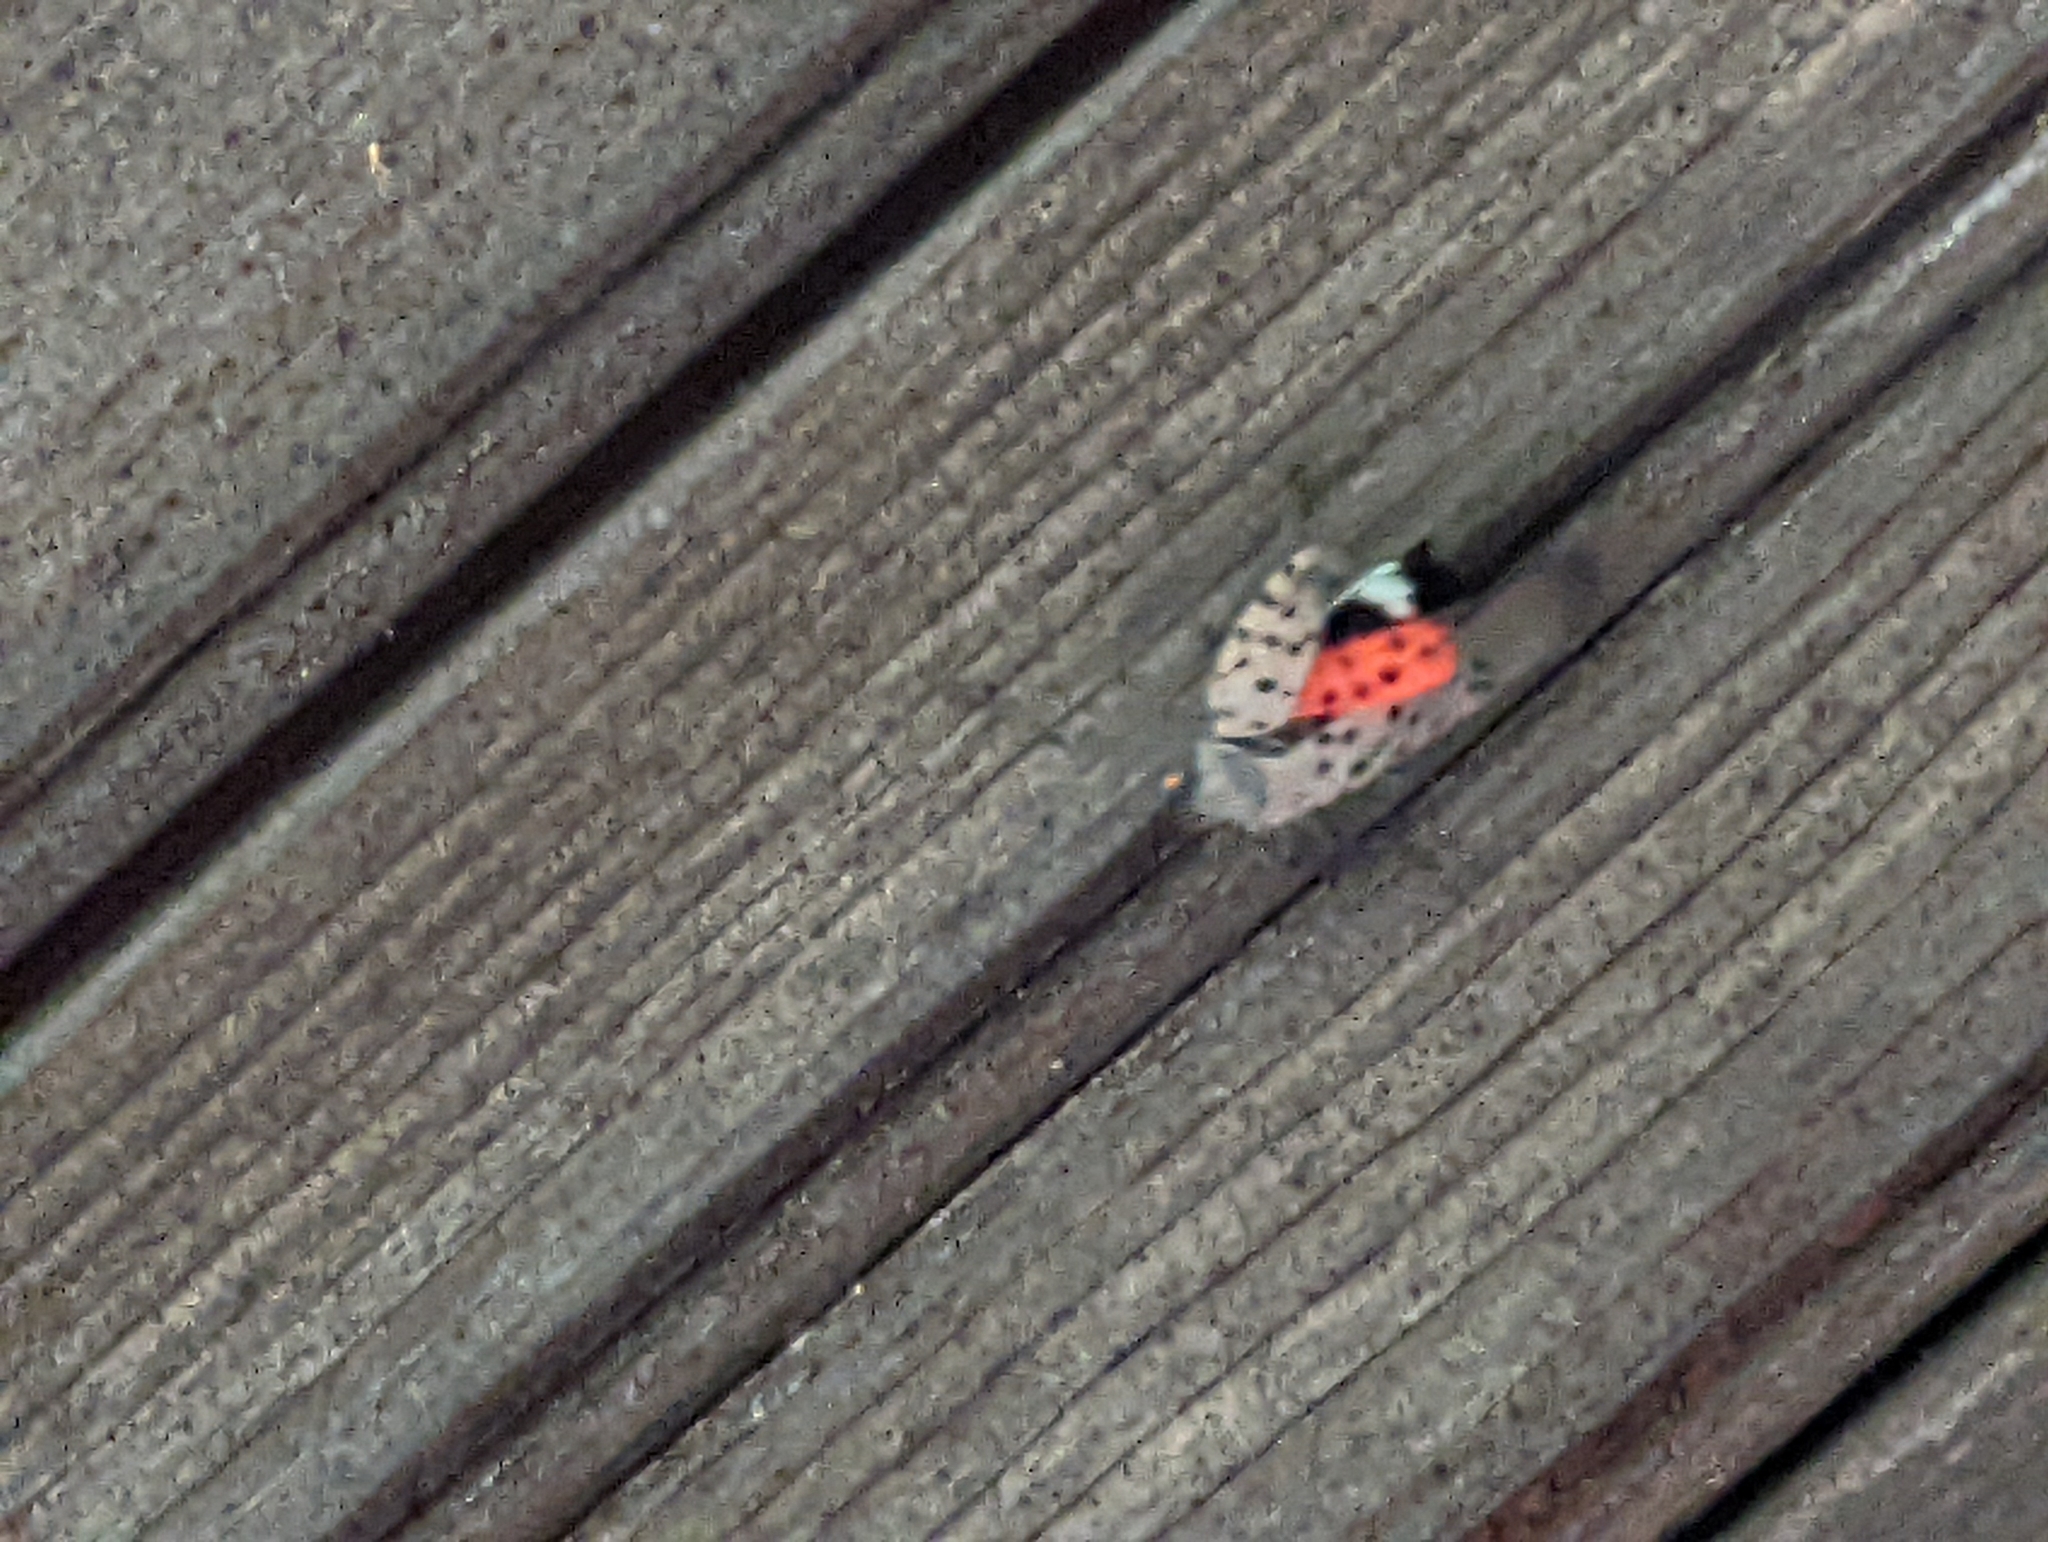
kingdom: Animalia
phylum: Arthropoda
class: Insecta
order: Hemiptera
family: Fulgoridae
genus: Lycorma
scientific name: Lycorma delicatula
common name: Spotted lanternfly
